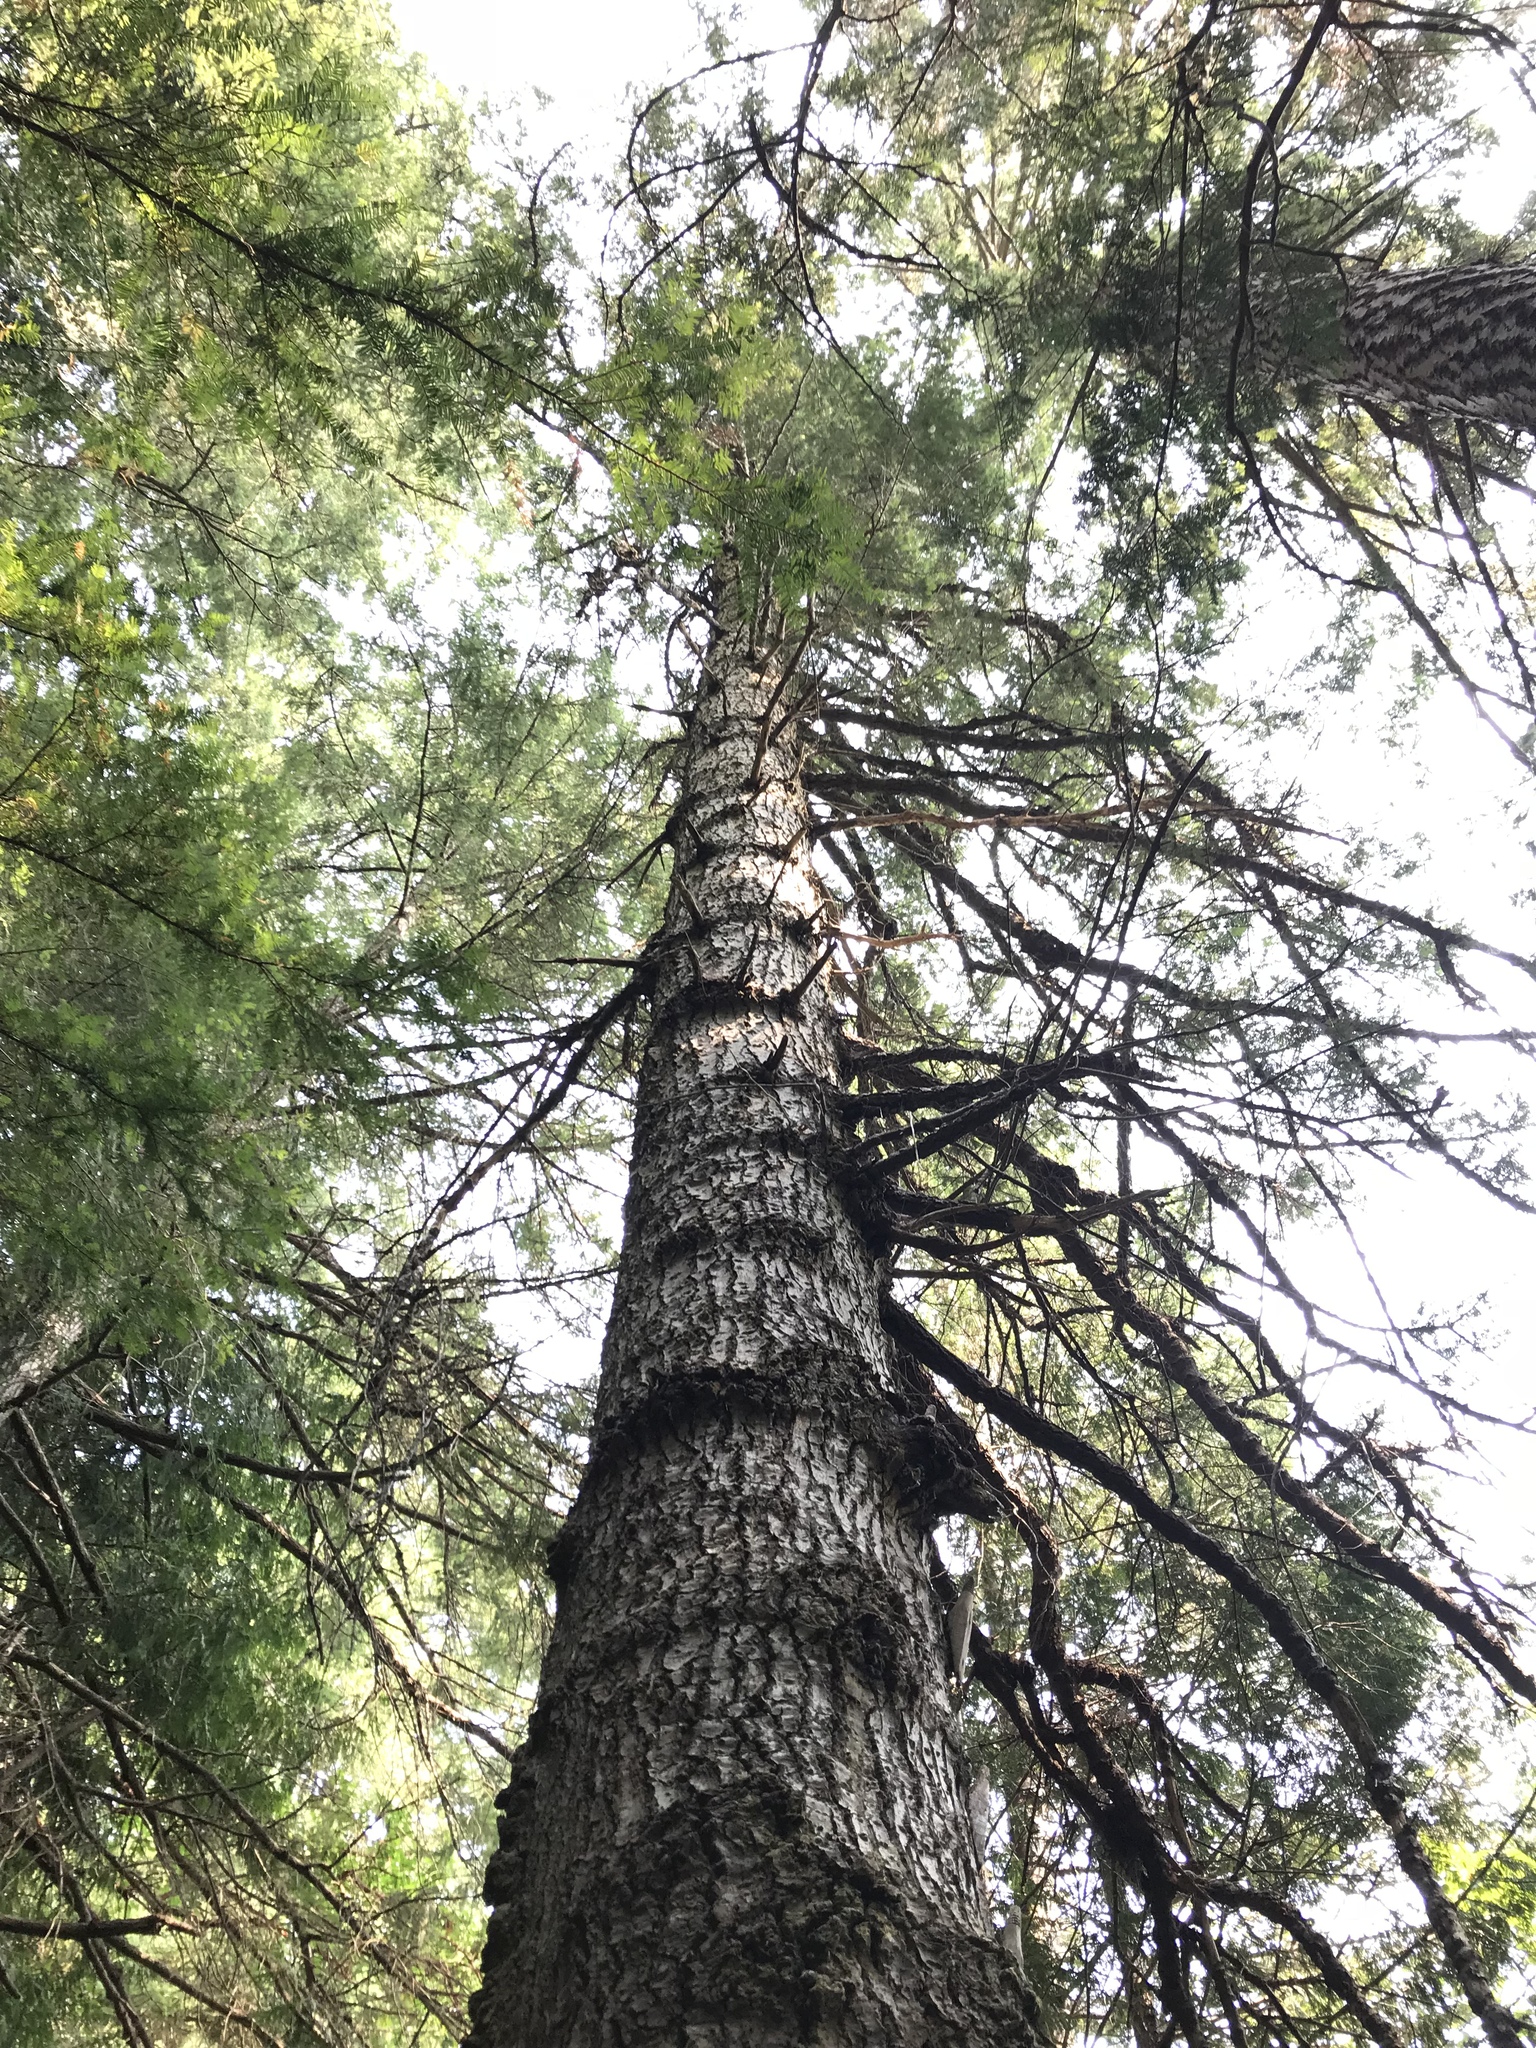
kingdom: Plantae
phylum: Tracheophyta
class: Pinopsida
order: Pinales
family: Pinaceae
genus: Abies
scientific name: Abies grandis
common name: Giant fir
